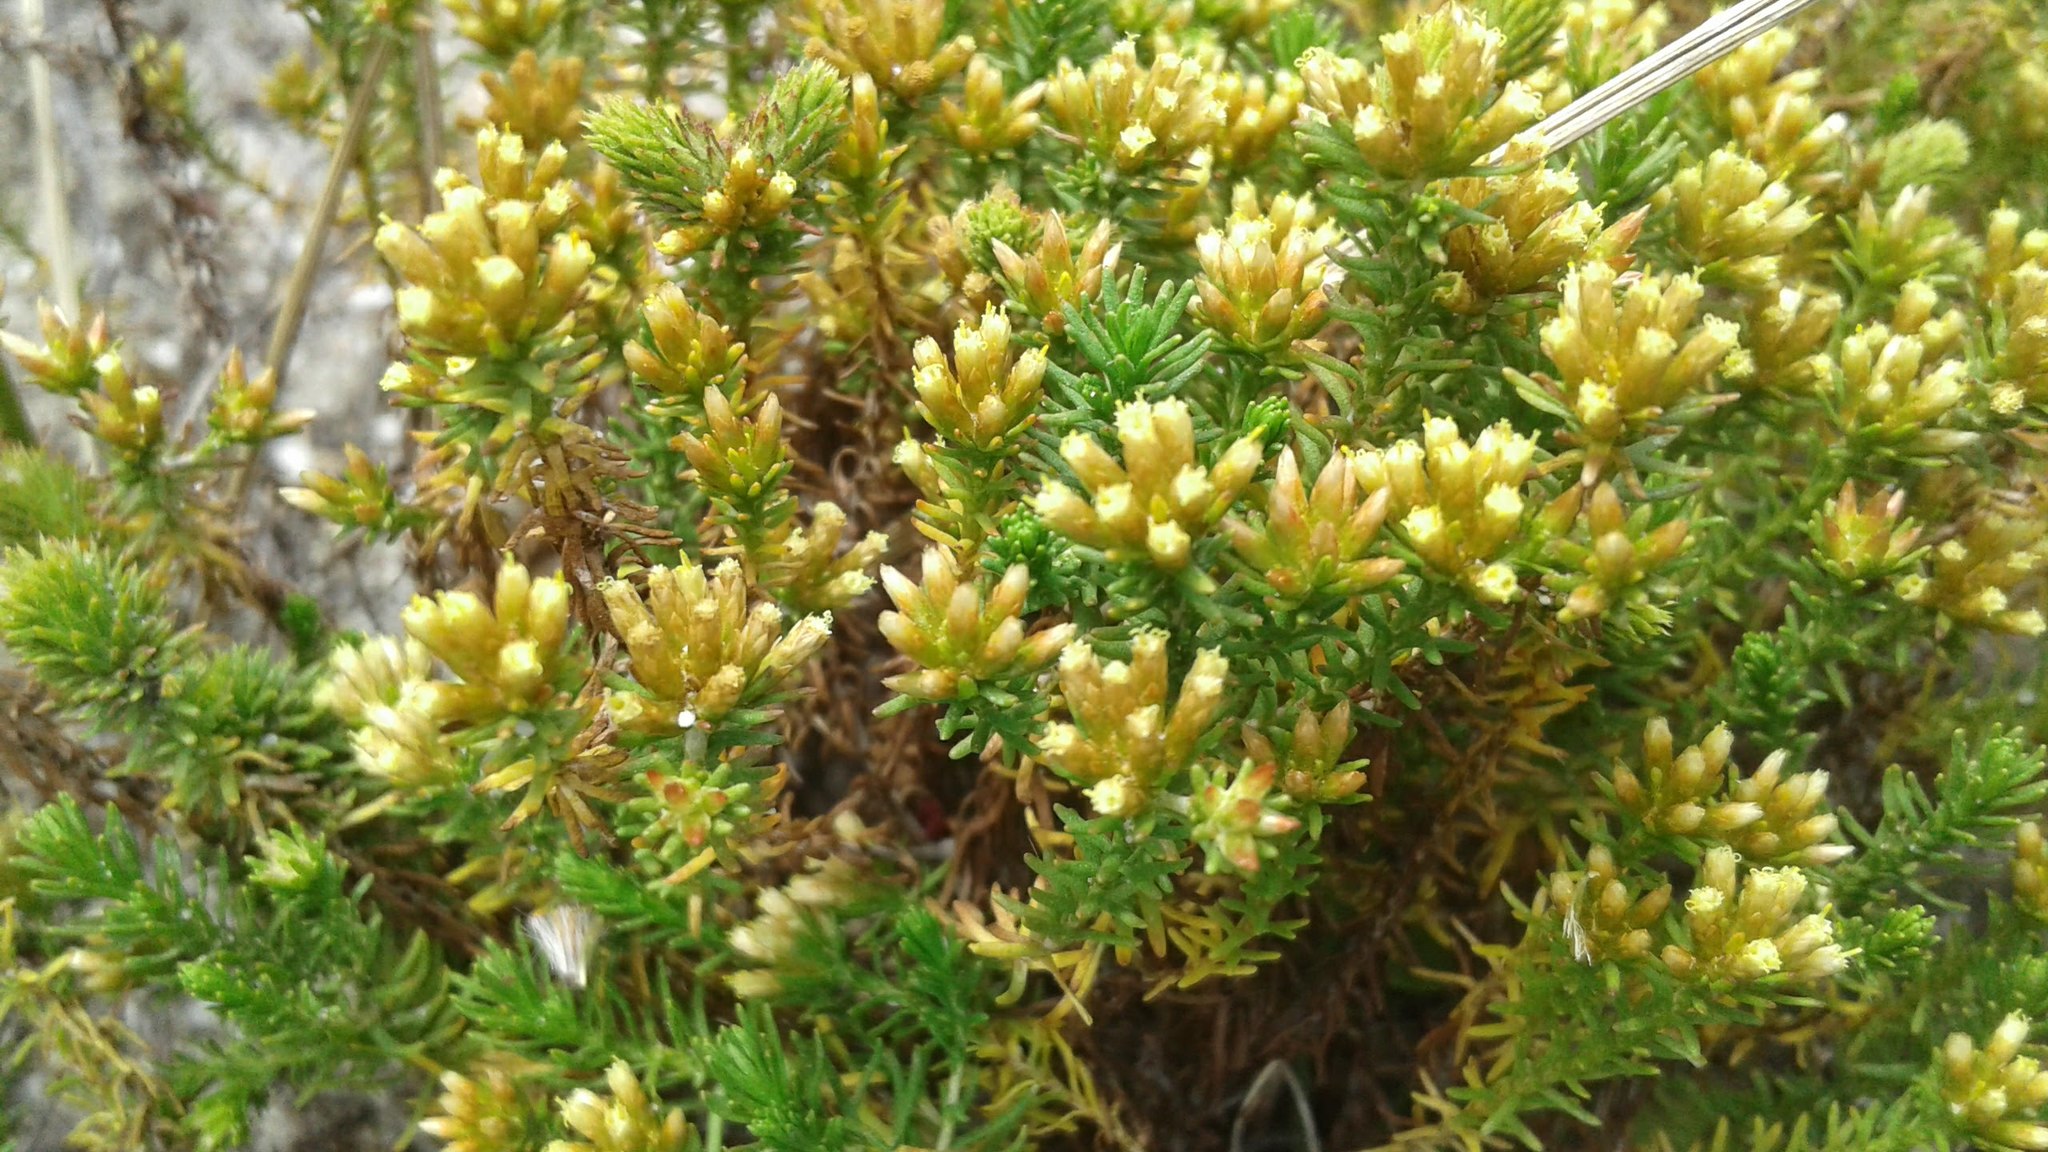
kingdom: Plantae
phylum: Tracheophyta
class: Magnoliopsida
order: Asterales
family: Asteraceae
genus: Helichrysum
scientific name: Helichrysum niveum
